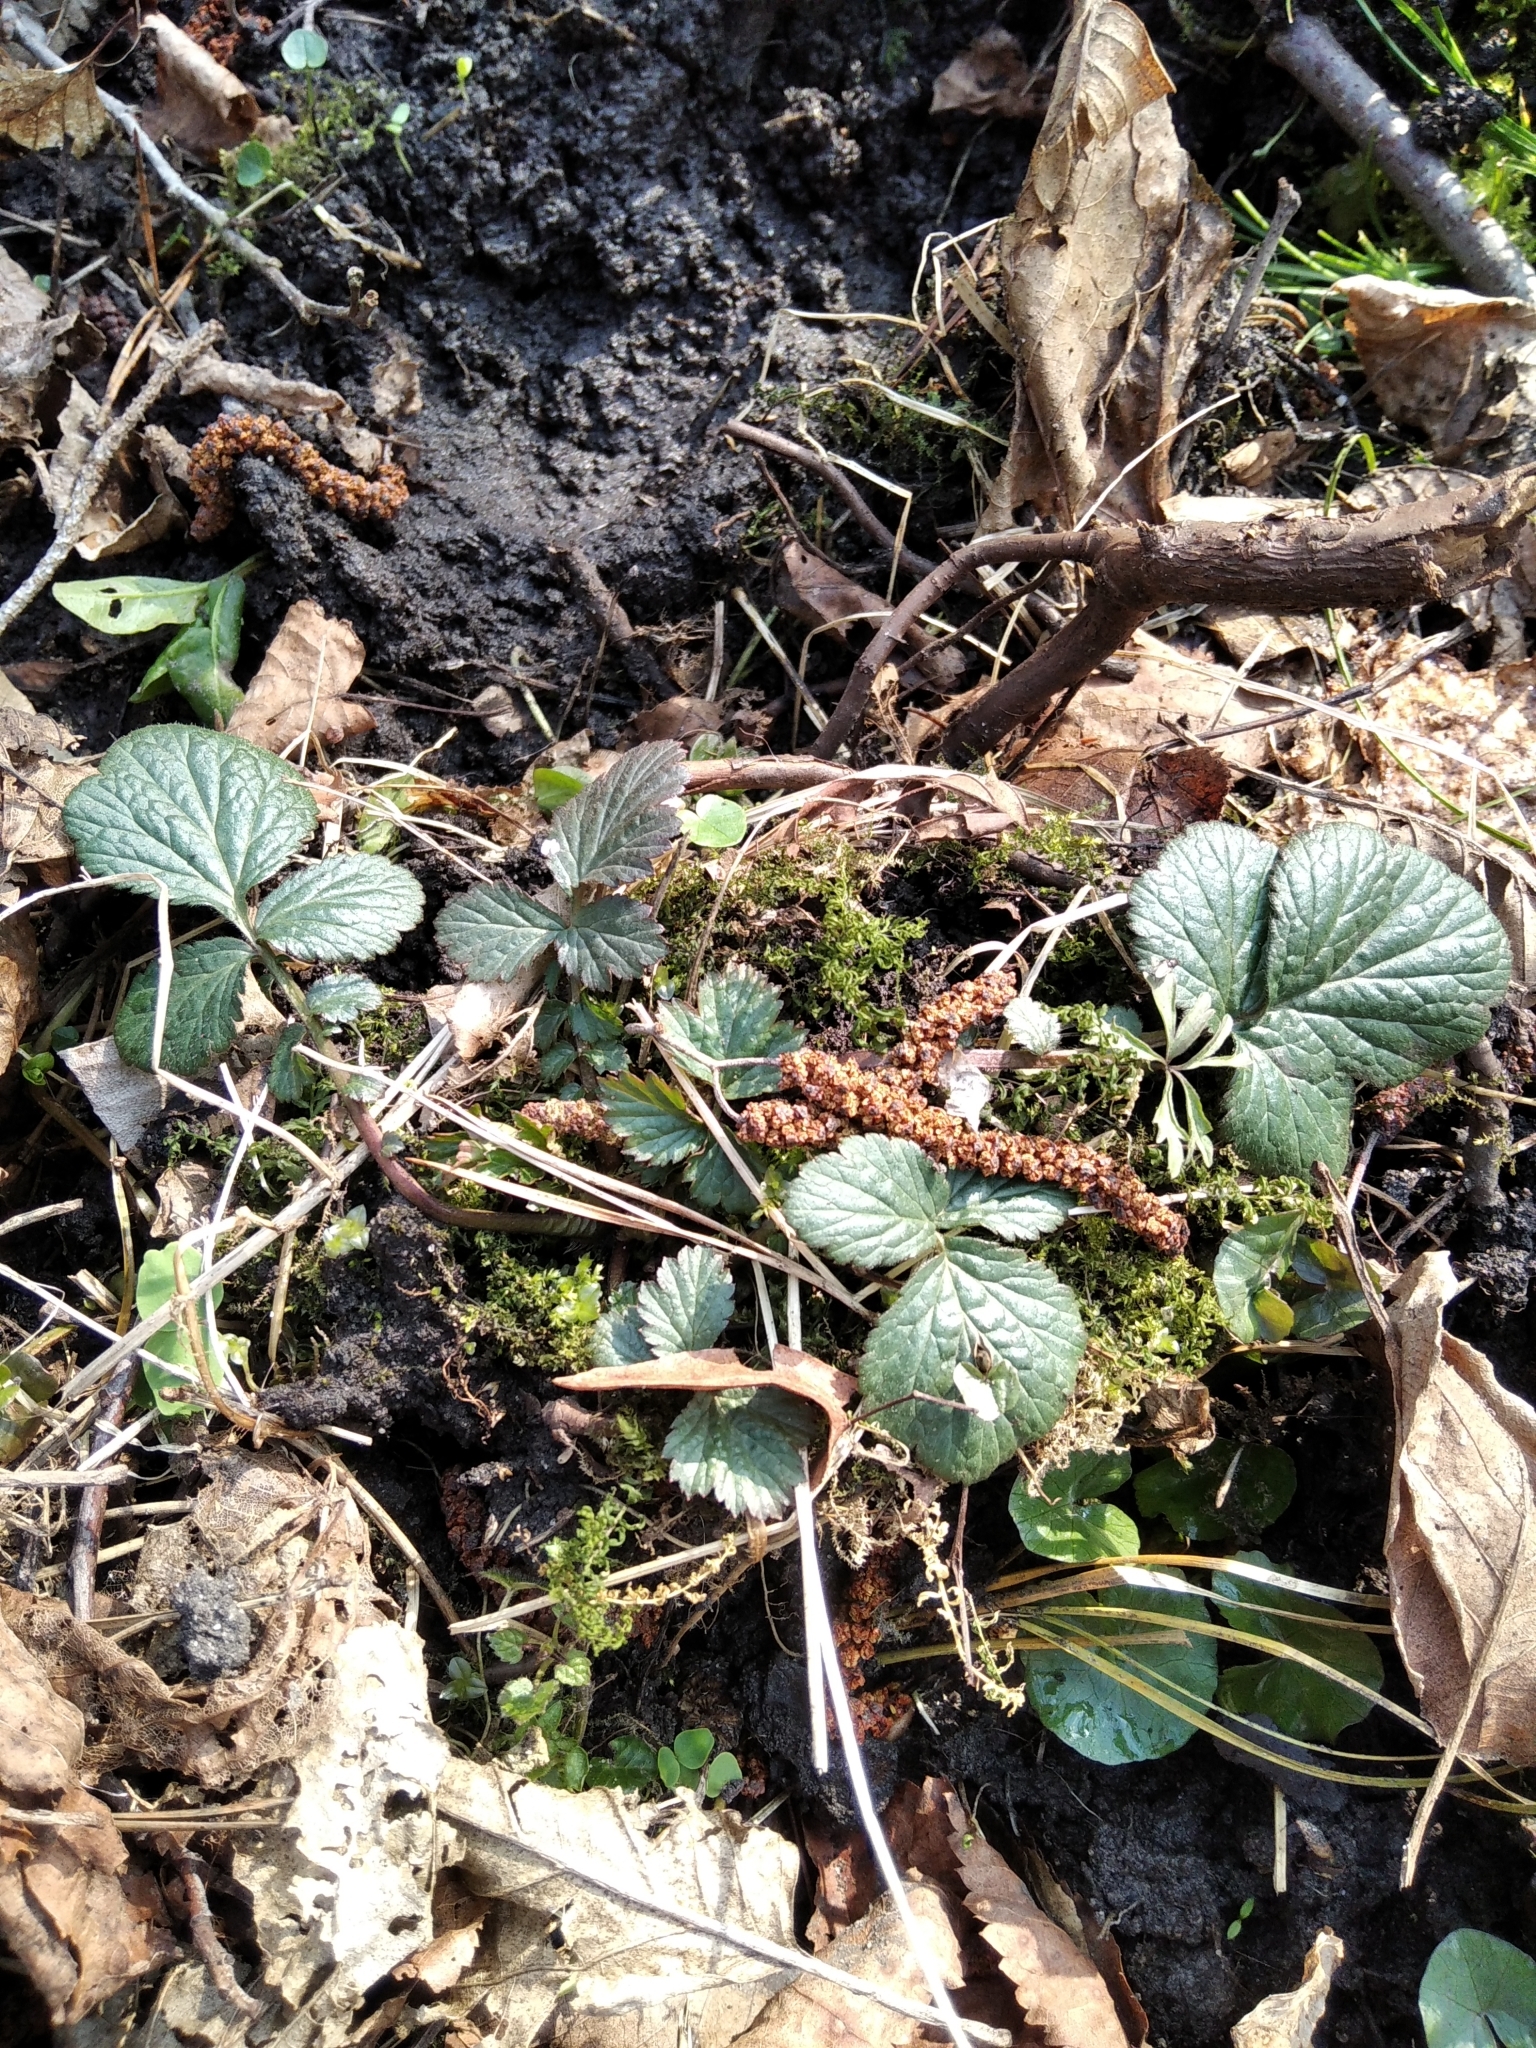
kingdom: Plantae
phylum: Tracheophyta
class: Magnoliopsida
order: Rosales
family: Rosaceae
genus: Geum
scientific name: Geum rivale
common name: Water avens
